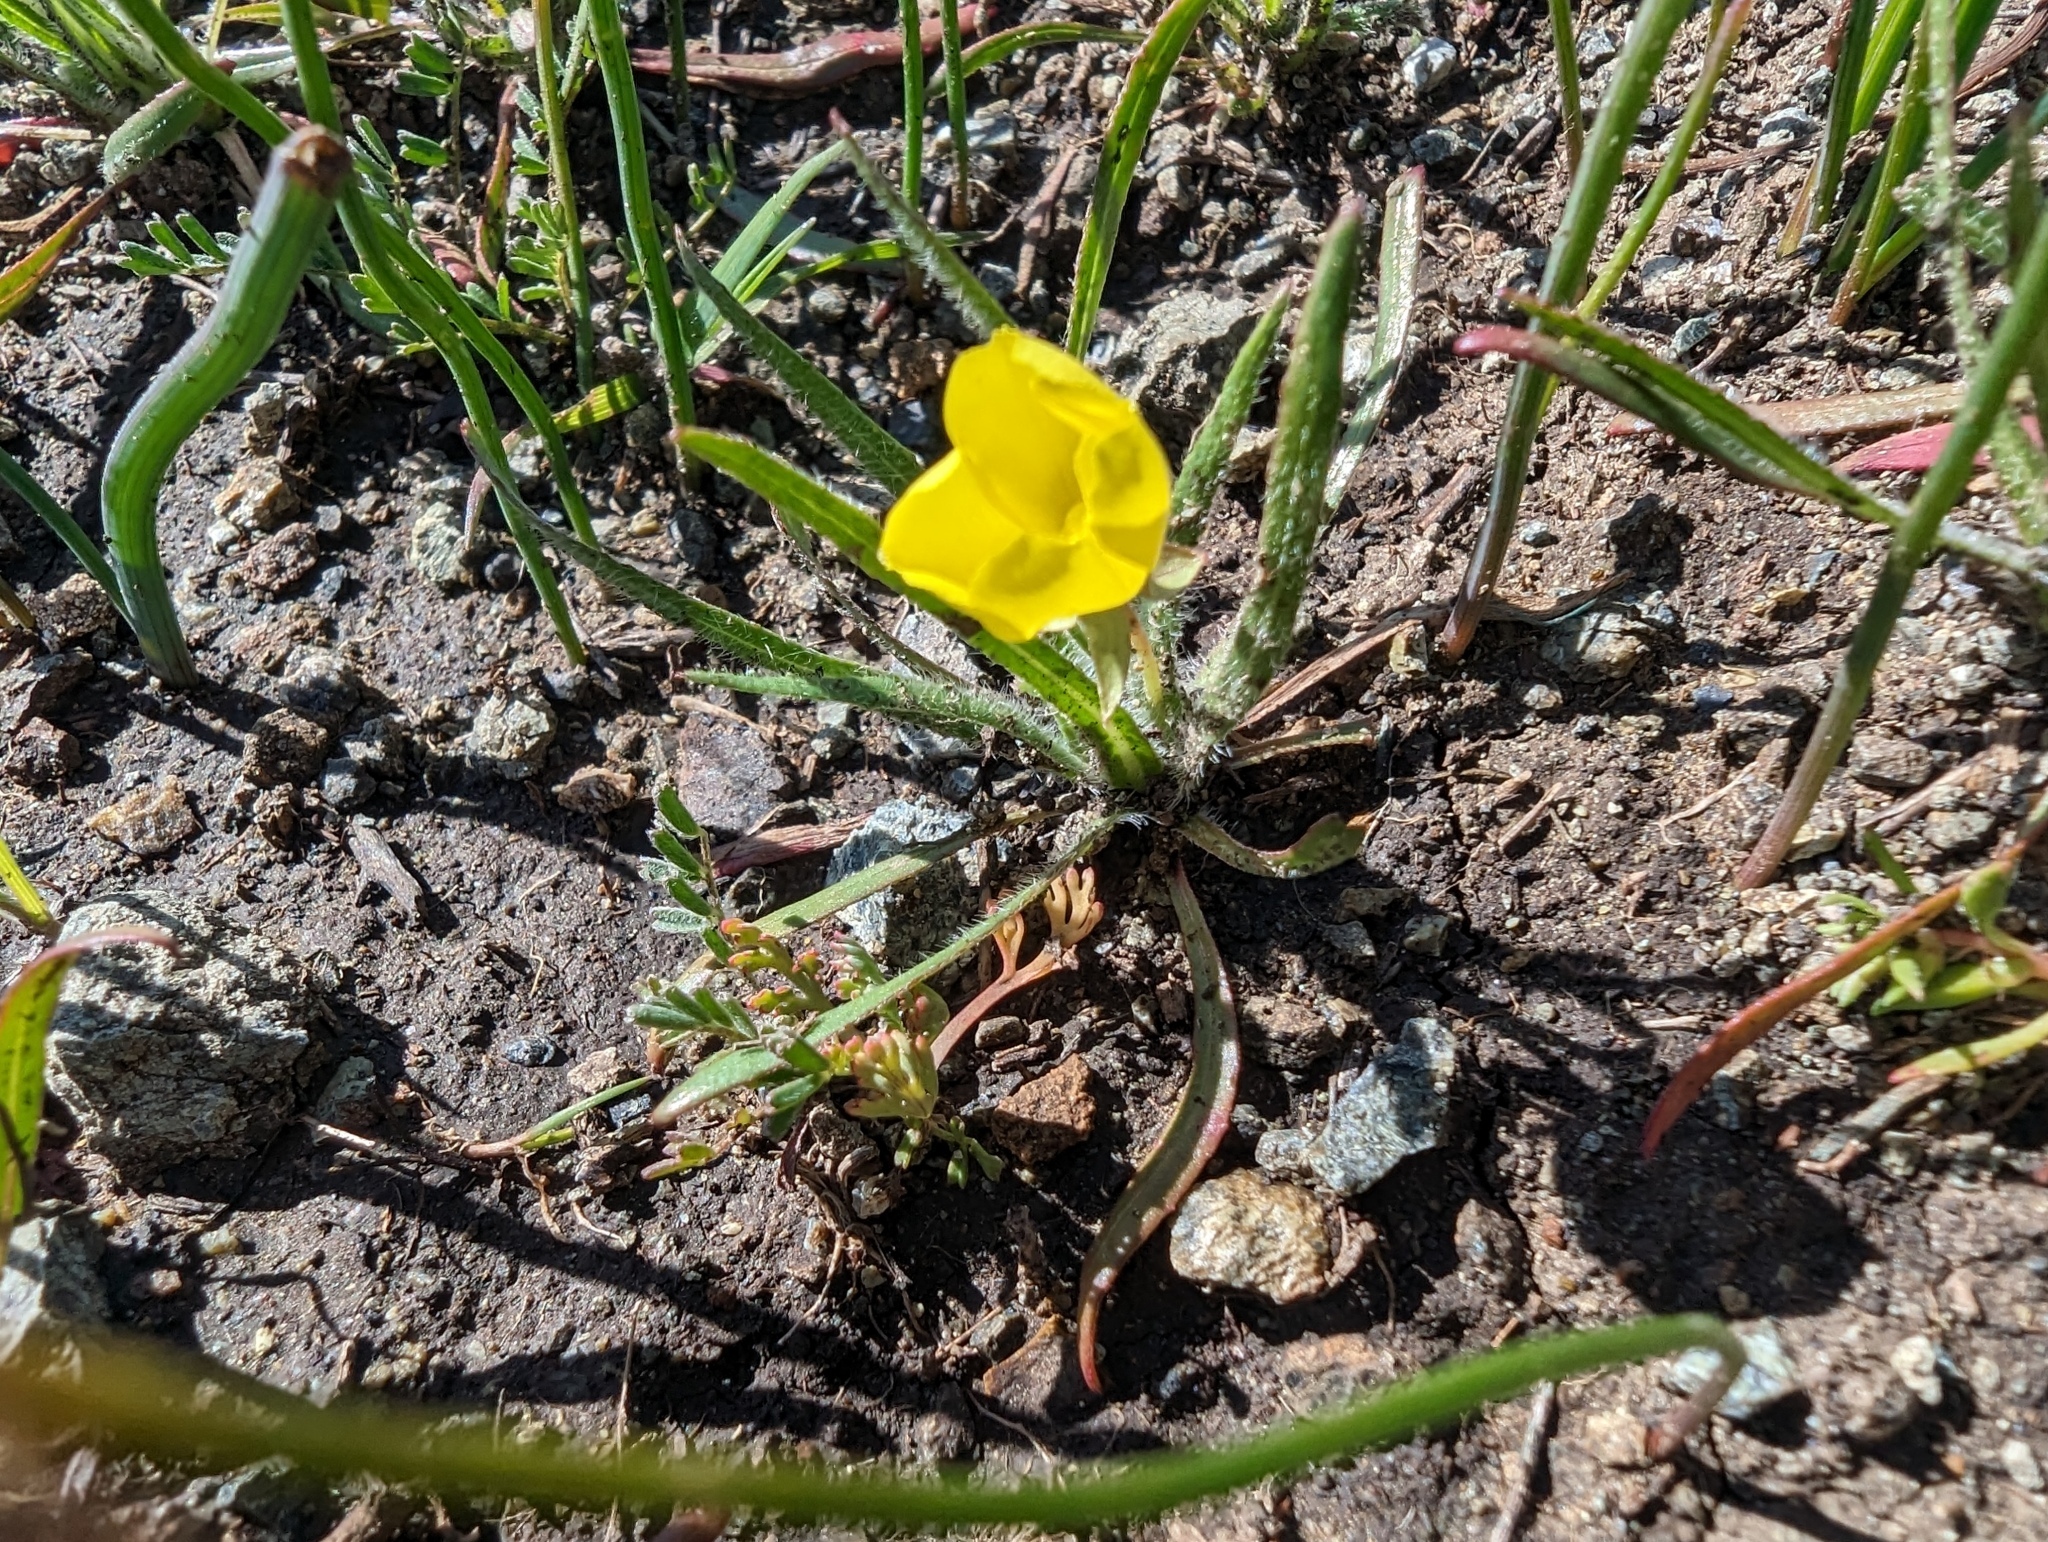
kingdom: Plantae
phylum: Tracheophyta
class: Magnoliopsida
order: Myrtales
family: Onagraceae
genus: Tetrapteron
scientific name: Tetrapteron graciliflorum
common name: Hill suncup
